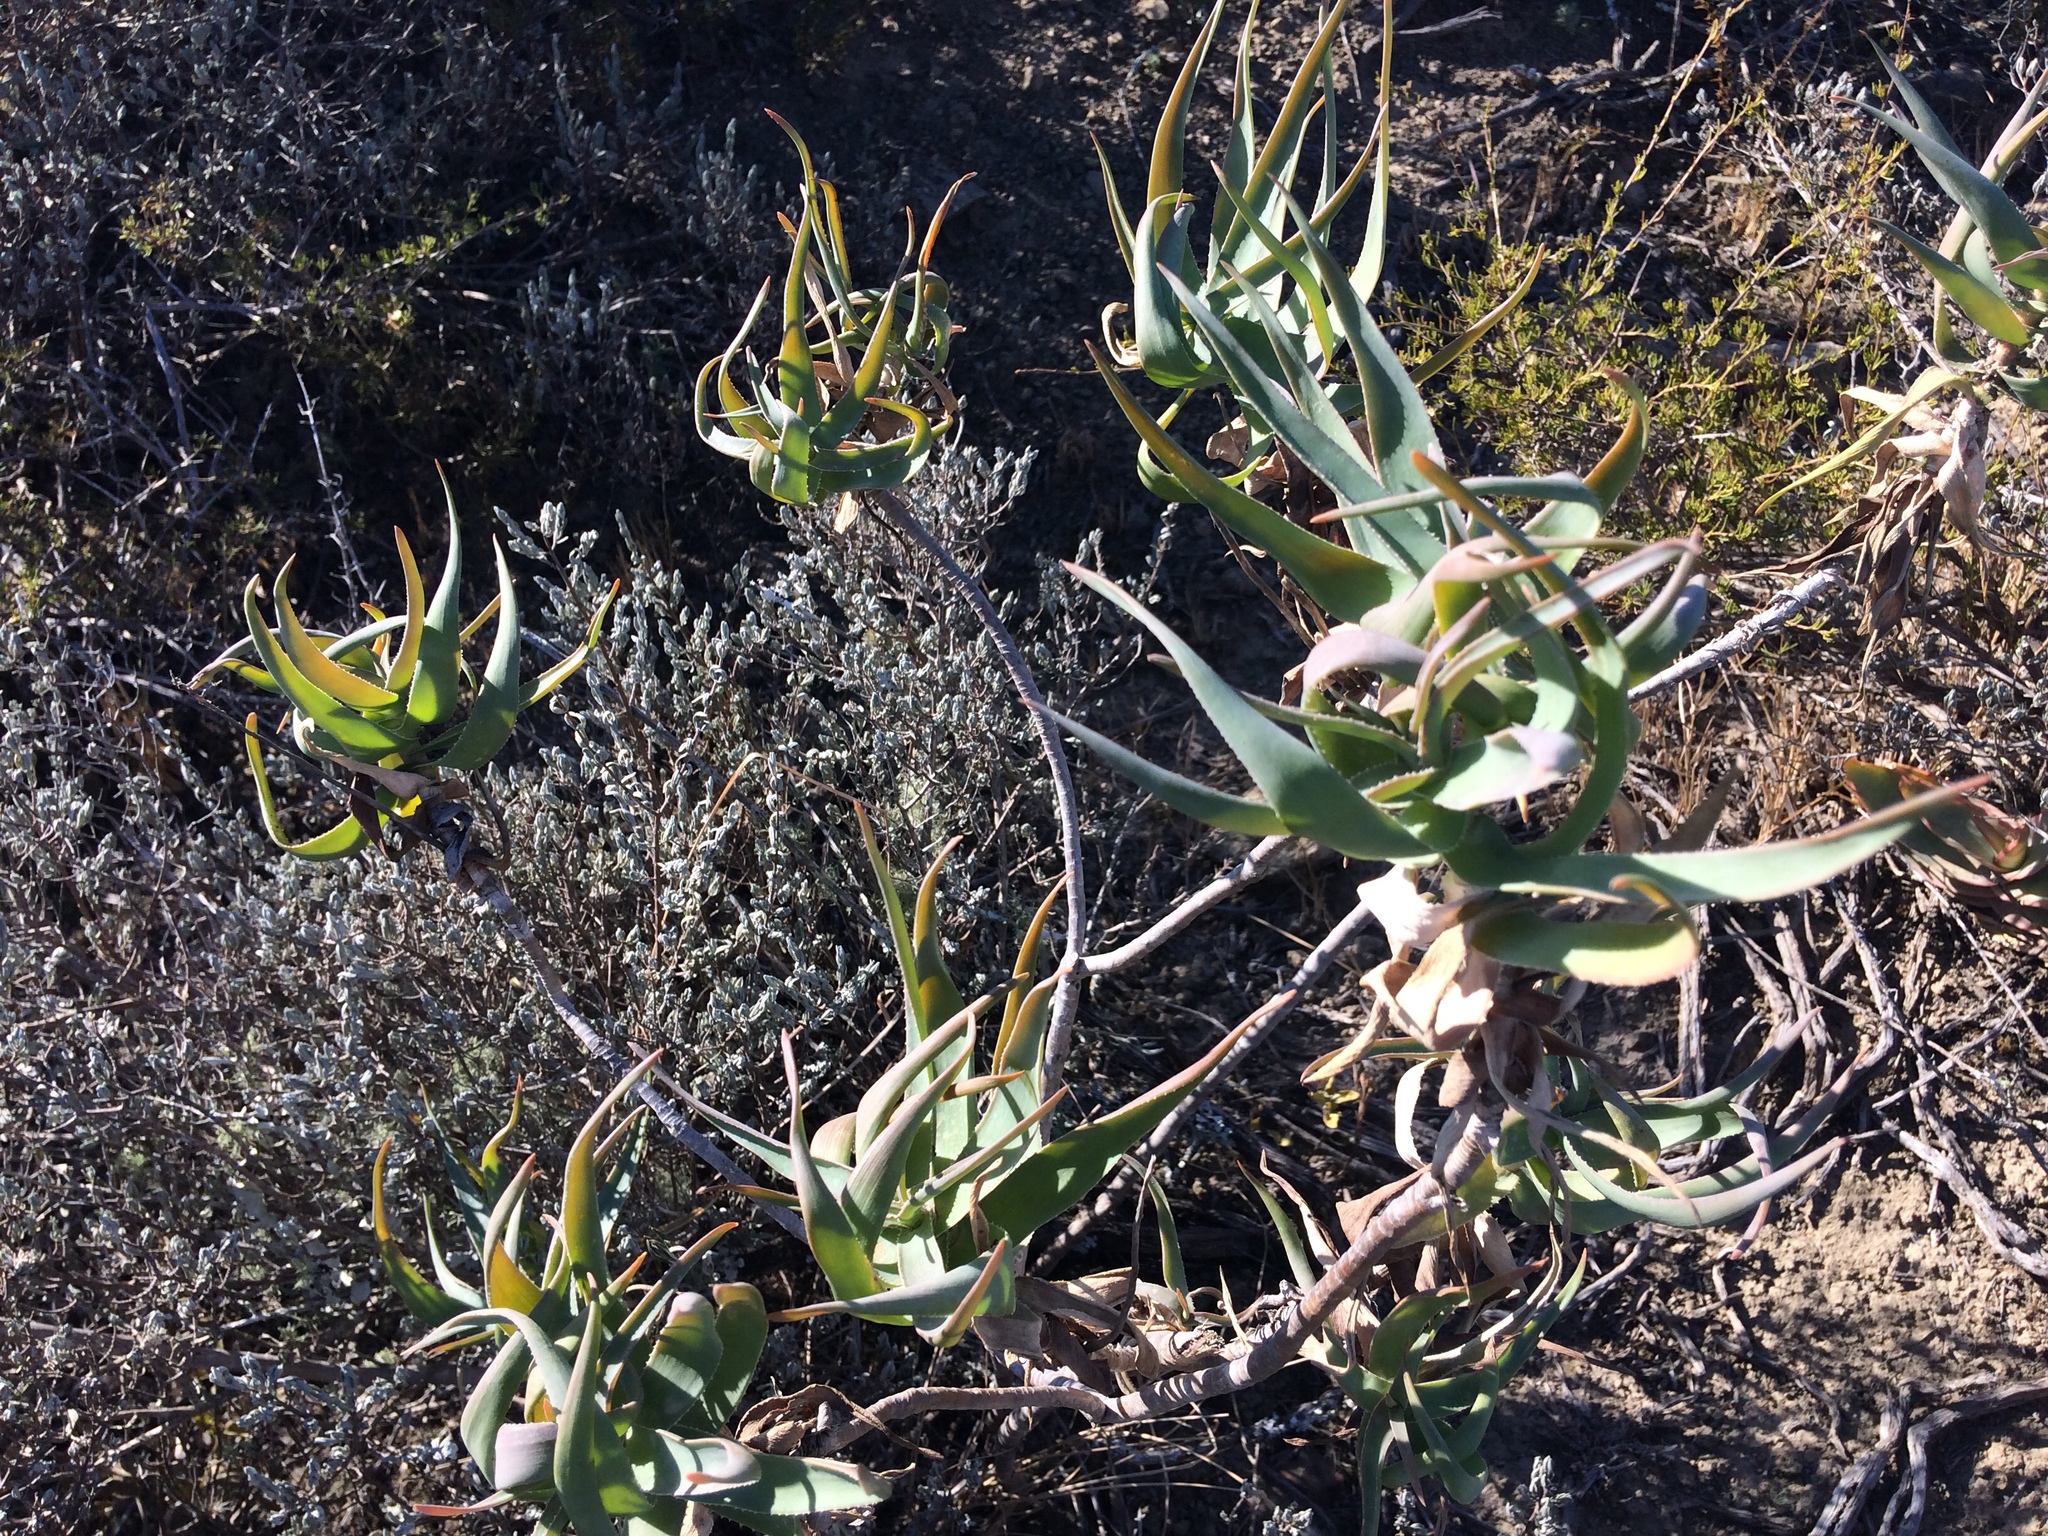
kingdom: Plantae
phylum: Tracheophyta
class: Liliopsida
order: Asparagales
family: Asphodelaceae
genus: Aloiampelos
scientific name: Aloiampelos tenuior
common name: Fence aloe
